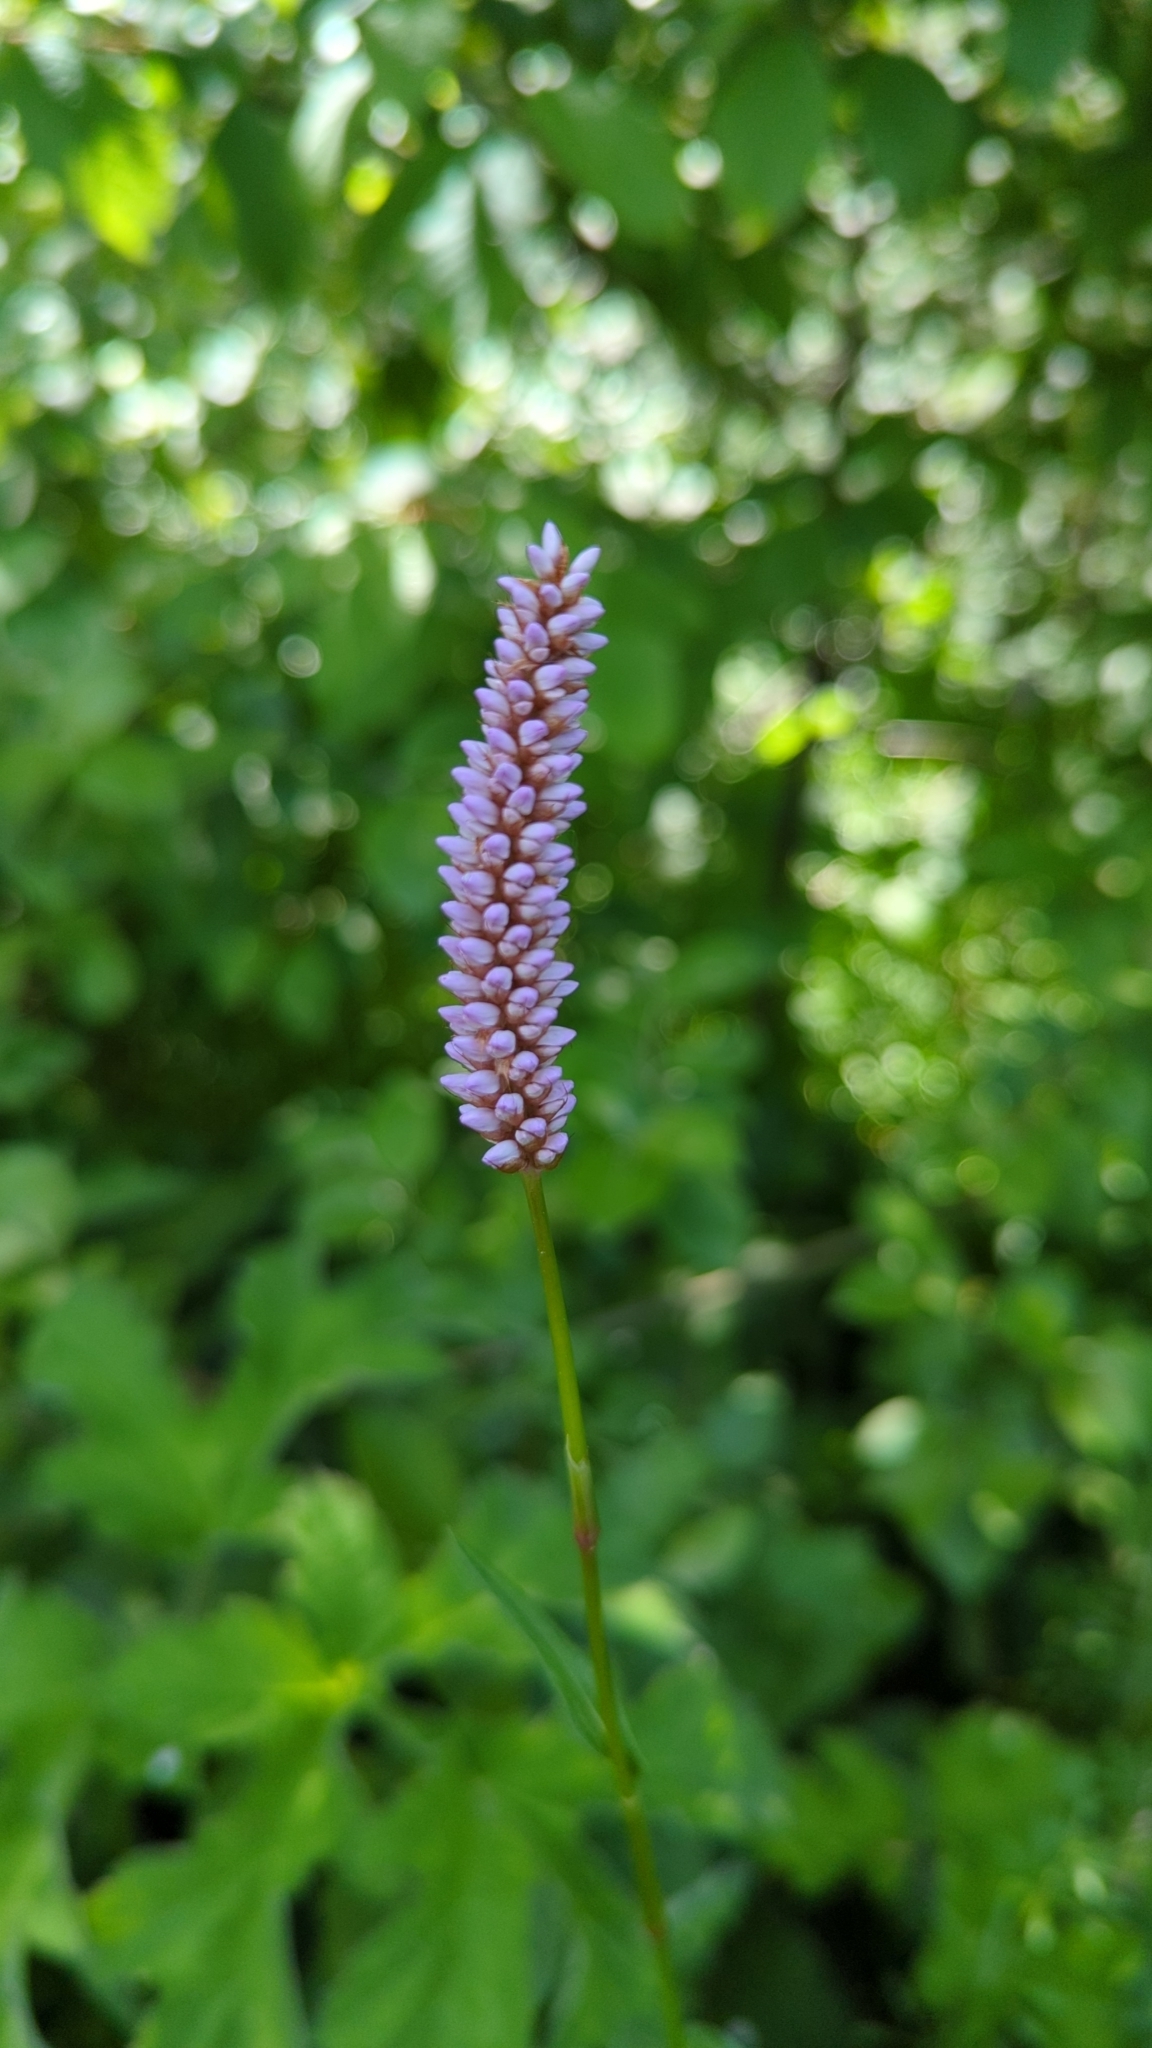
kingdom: Plantae
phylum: Tracheophyta
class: Magnoliopsida
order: Caryophyllales
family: Polygonaceae
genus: Bistorta
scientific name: Bistorta officinalis
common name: Common bistort
